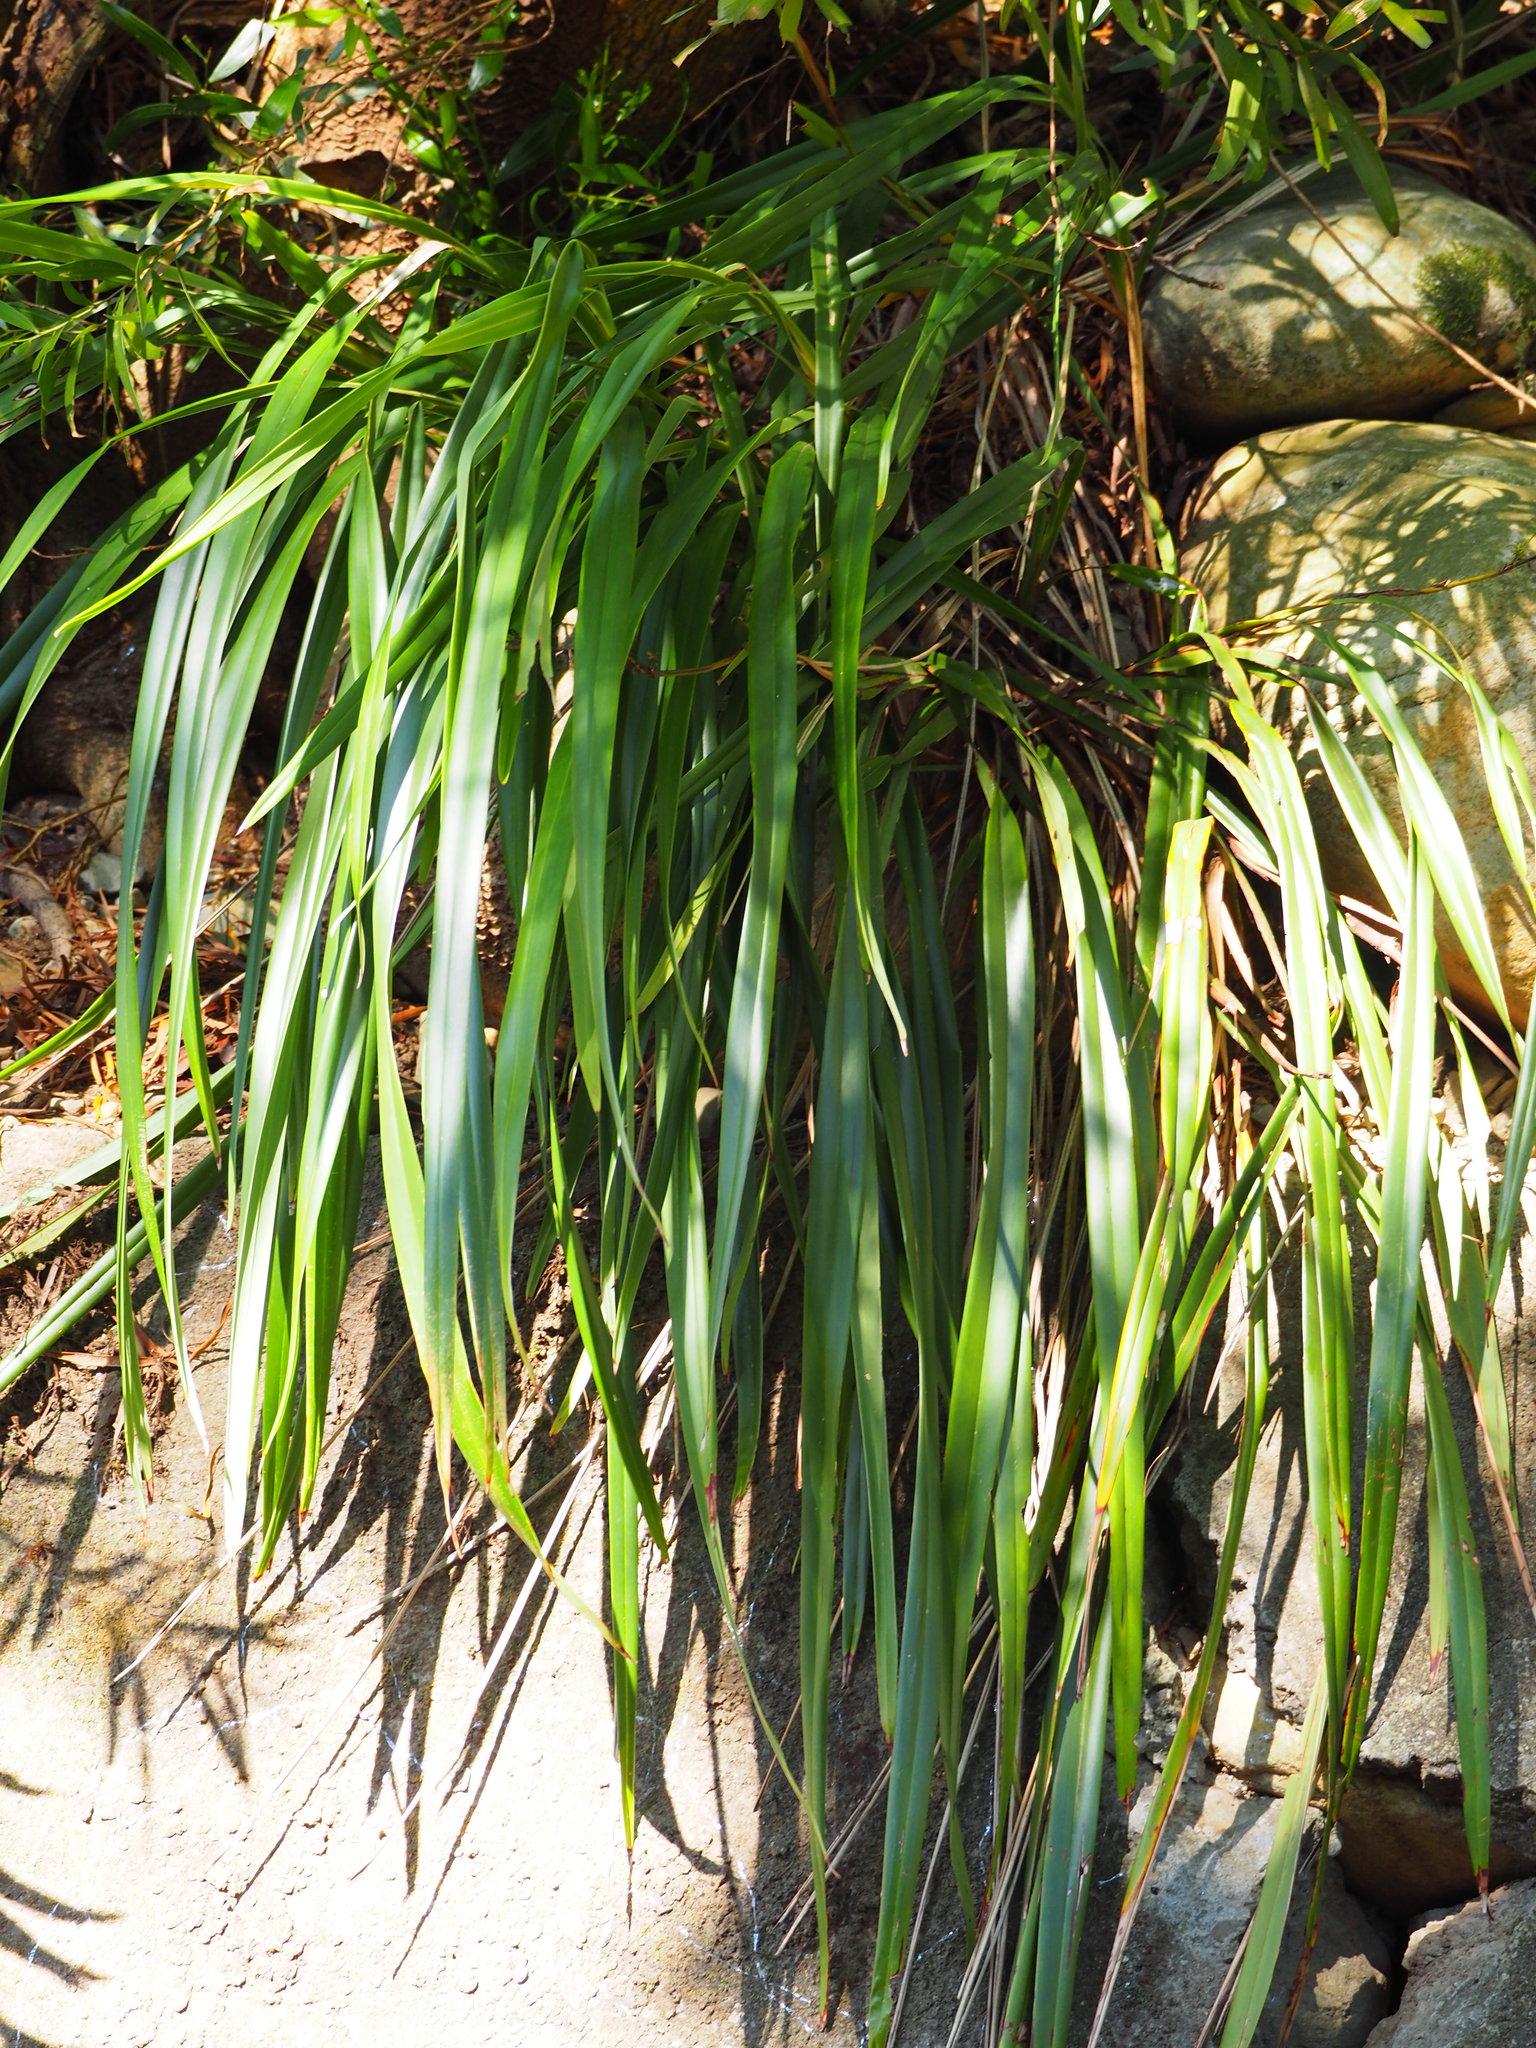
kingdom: Plantae
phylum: Tracheophyta
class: Liliopsida
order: Asparagales
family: Asphodelaceae
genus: Dianella
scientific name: Dianella ensifolia
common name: New zealand lilyplant
